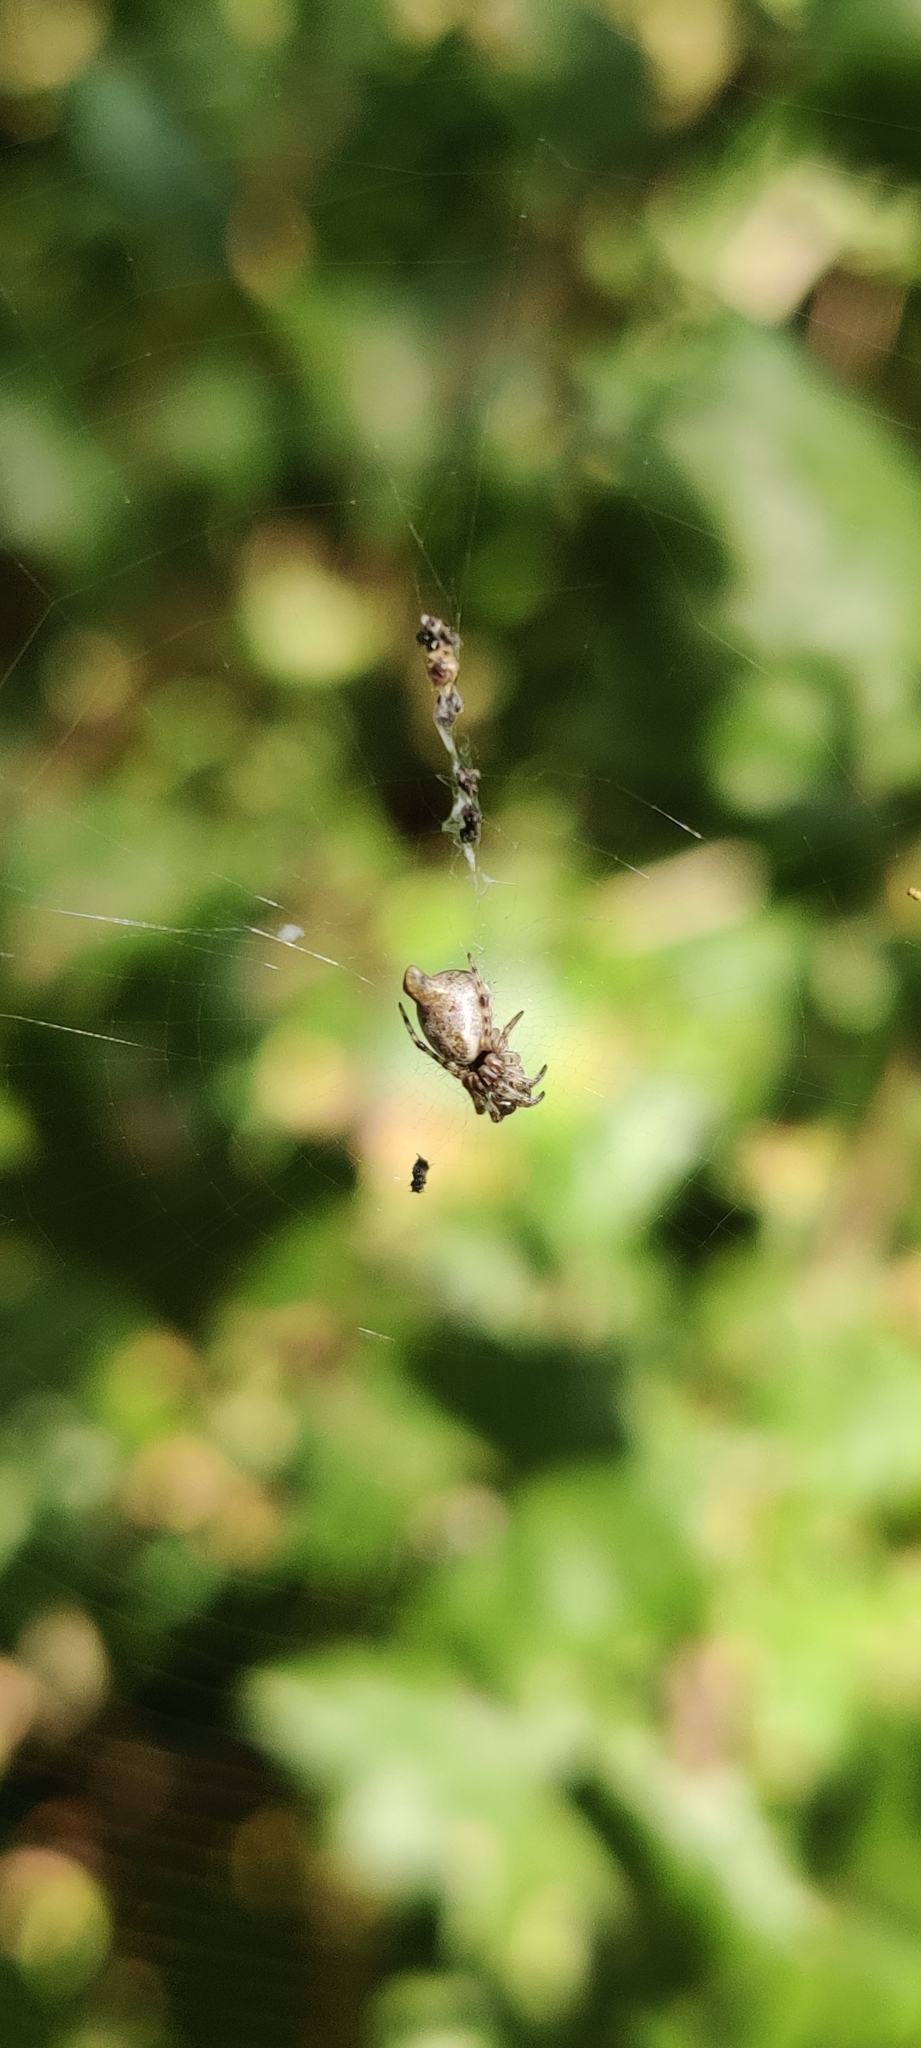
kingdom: Animalia
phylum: Arthropoda
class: Arachnida
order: Araneae
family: Araneidae
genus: Cyclosa
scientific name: Cyclosa conica
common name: Conical trashline orbweaver
